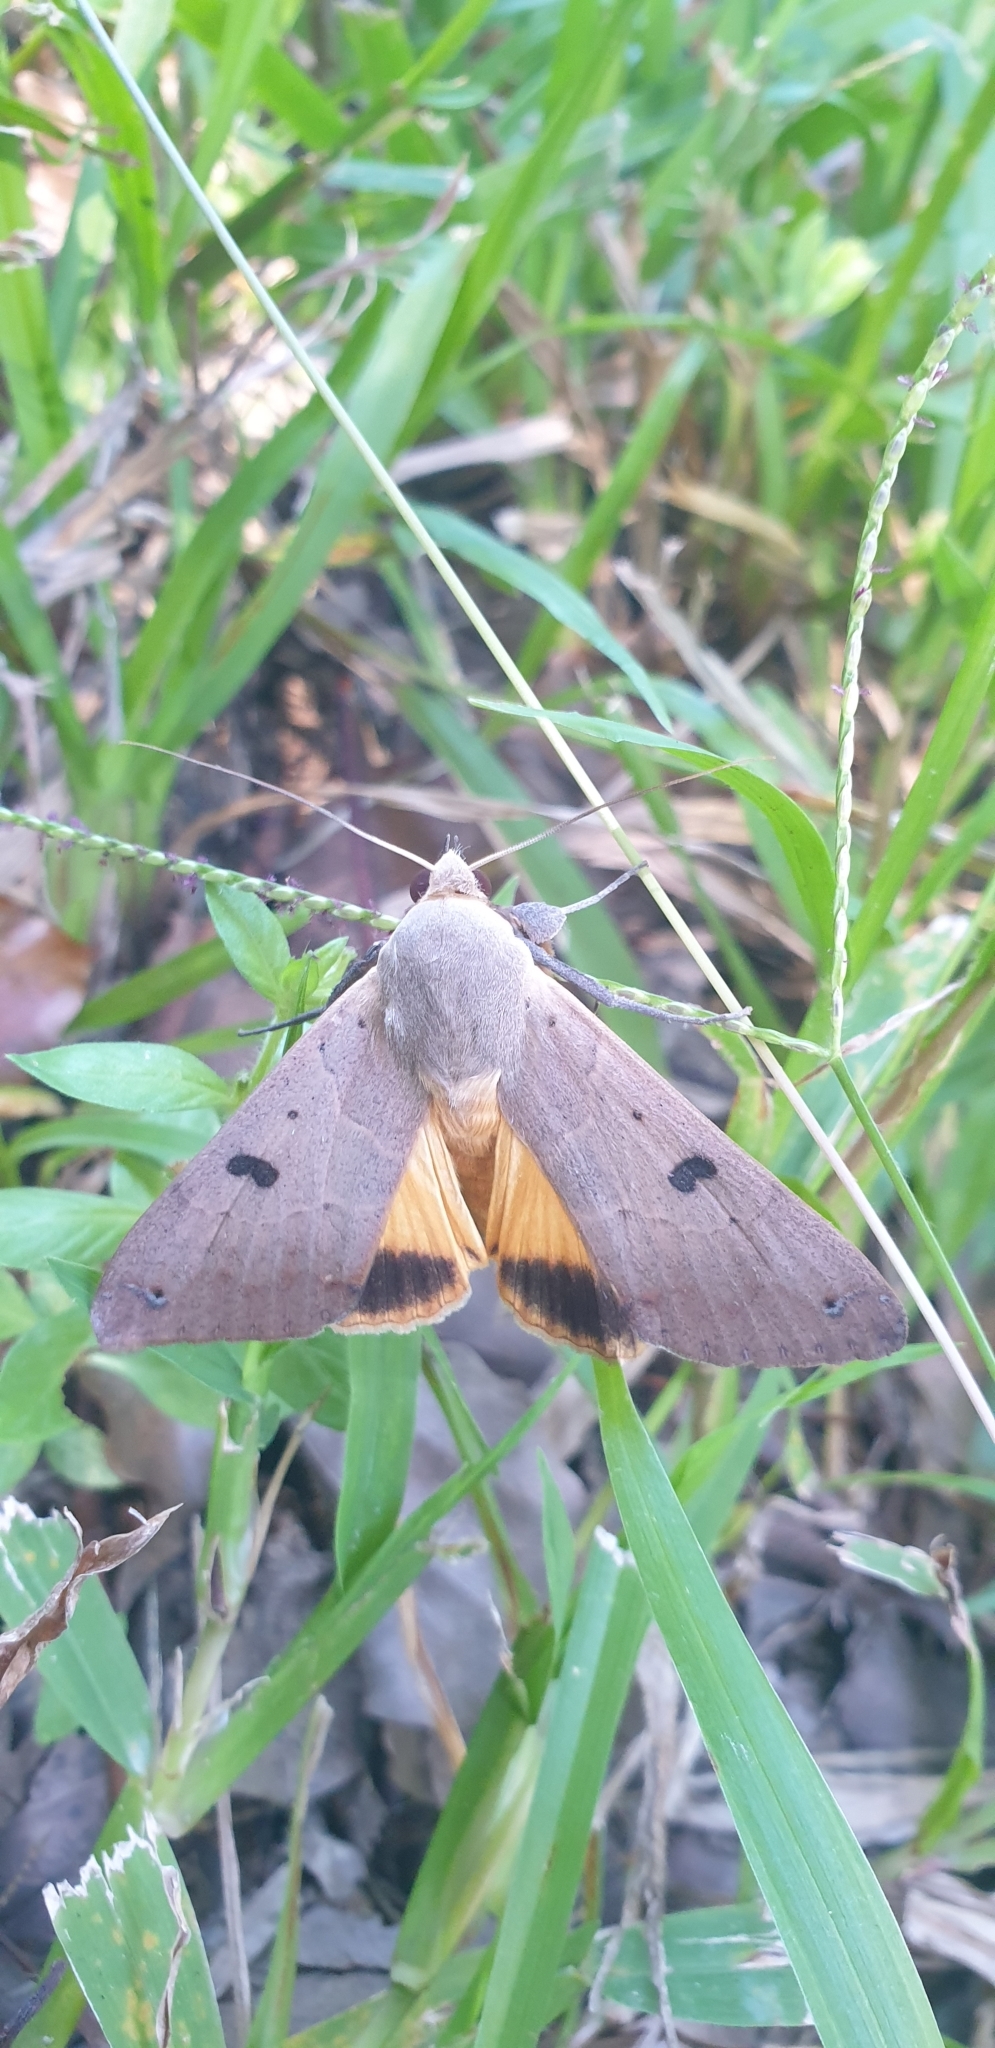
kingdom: Animalia
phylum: Arthropoda
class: Insecta
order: Lepidoptera
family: Erebidae
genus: Ophiusa
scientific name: Ophiusa parcemacula
